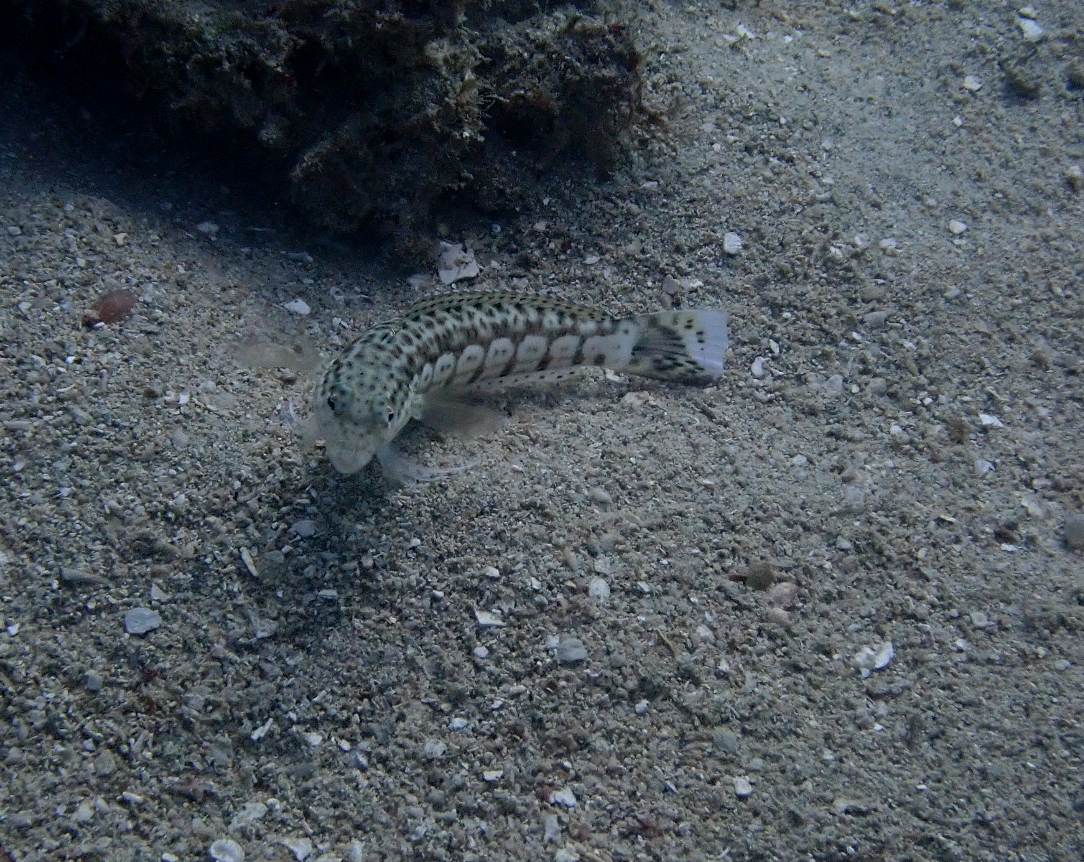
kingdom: Animalia
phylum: Chordata
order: Perciformes
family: Pinguipedidae
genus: Parapercis
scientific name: Parapercis pacifica
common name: Speckled sandperch
